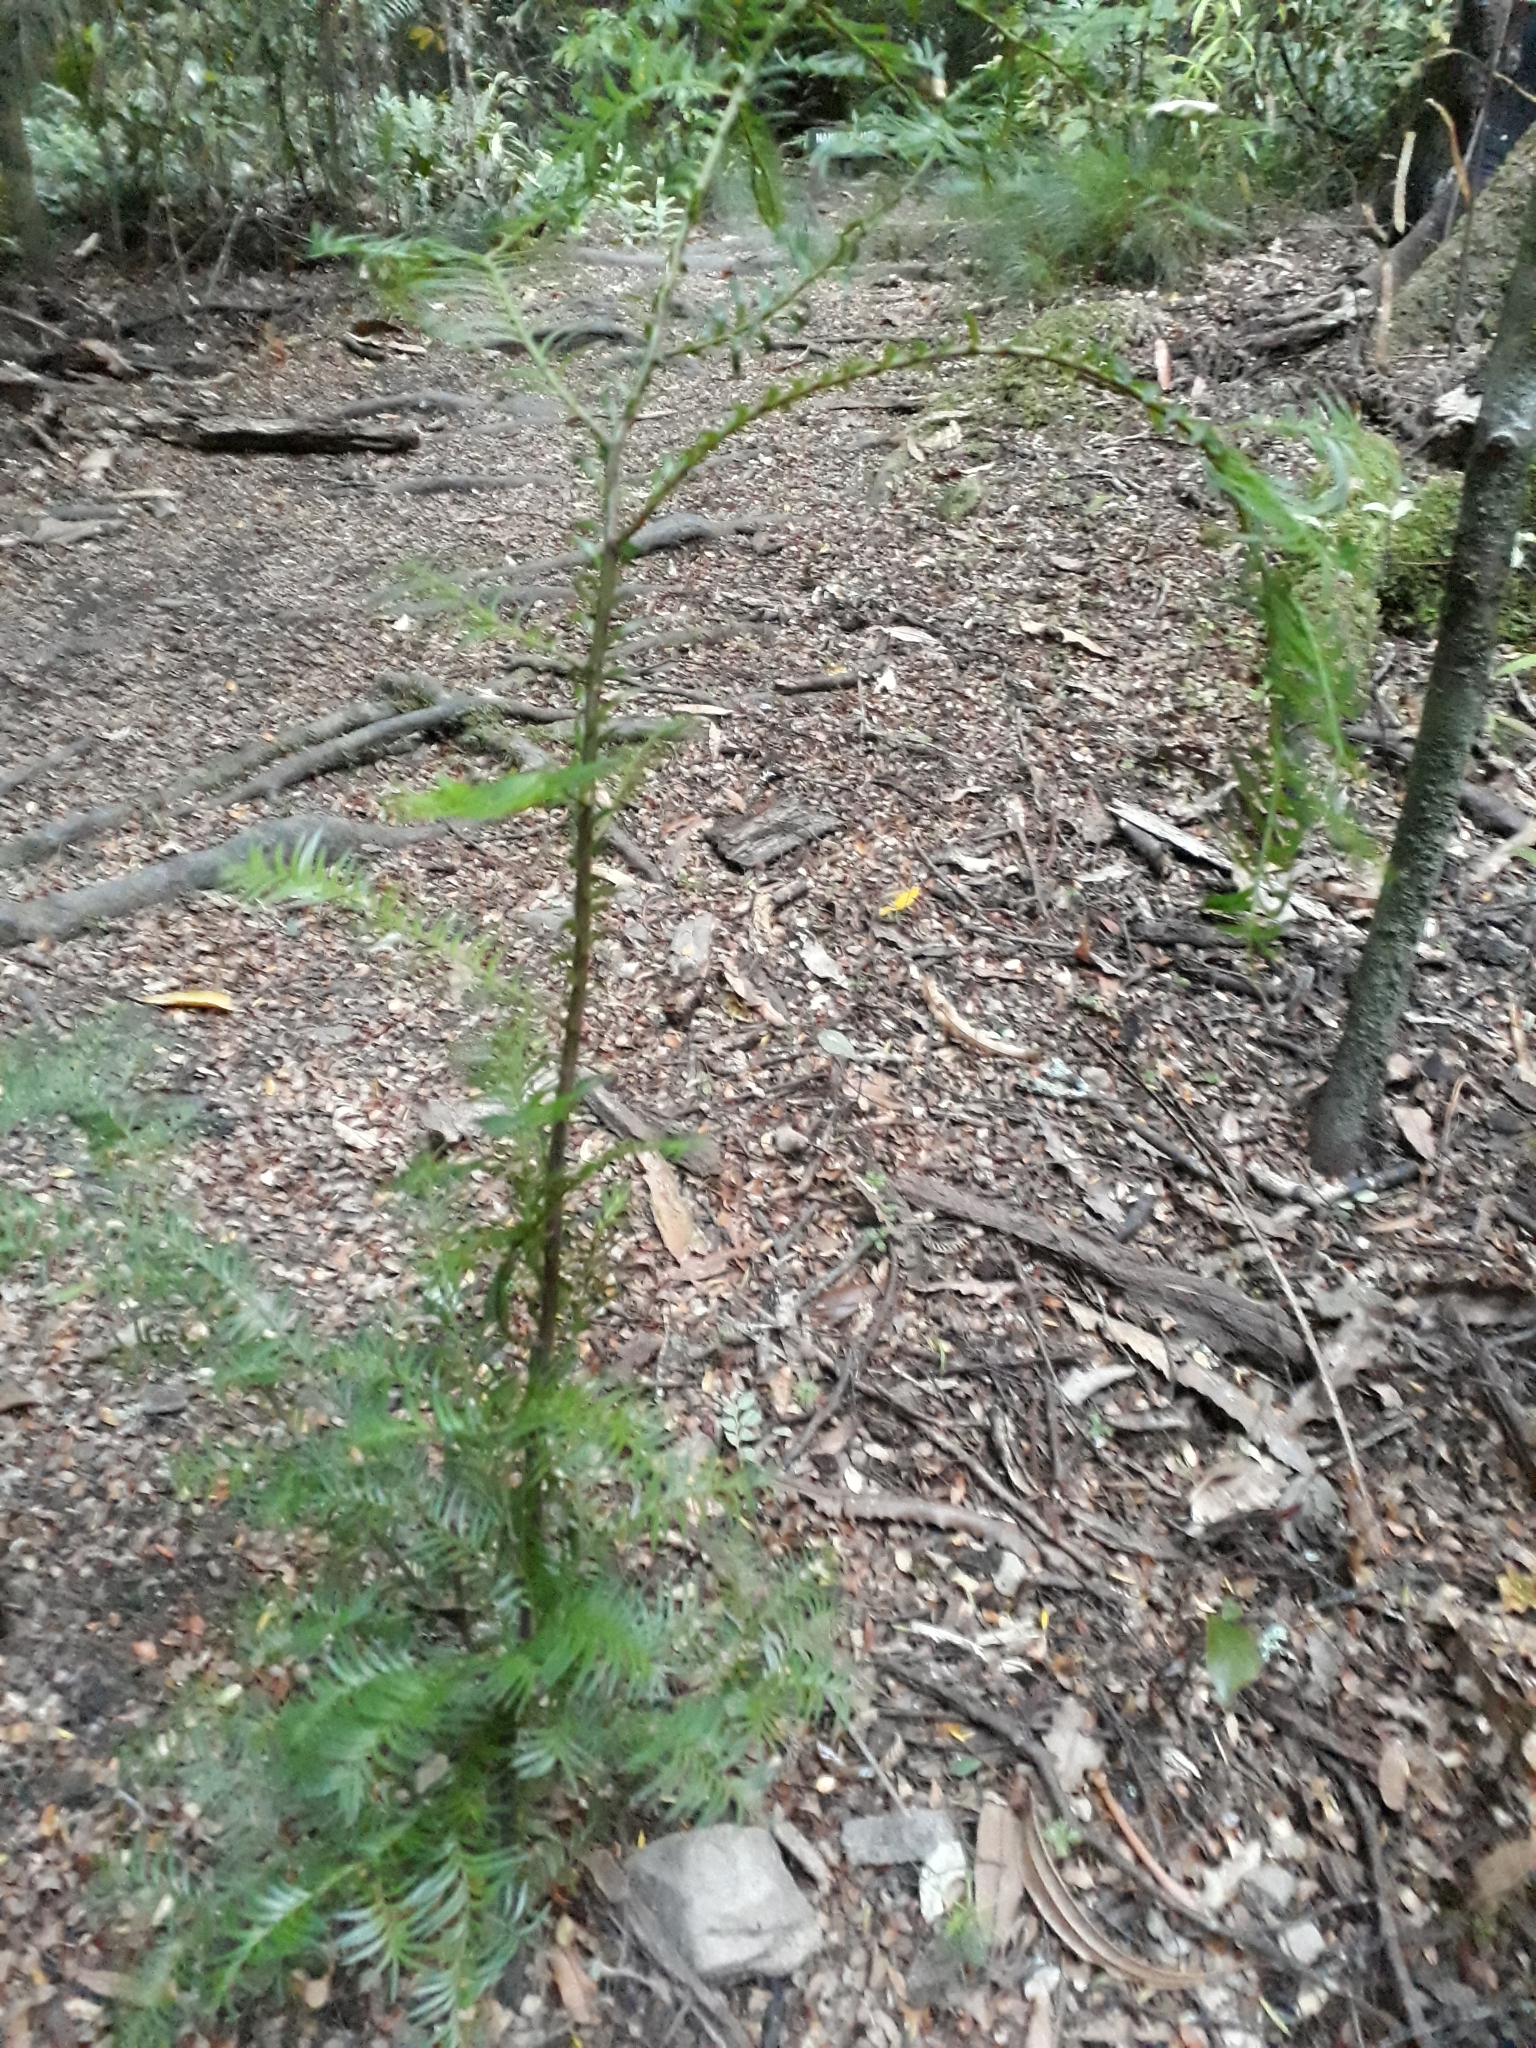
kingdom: Plantae
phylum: Tracheophyta
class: Pinopsida
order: Pinales
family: Podocarpaceae
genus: Prumnopitys
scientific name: Prumnopitys ferruginea
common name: Brown pine
